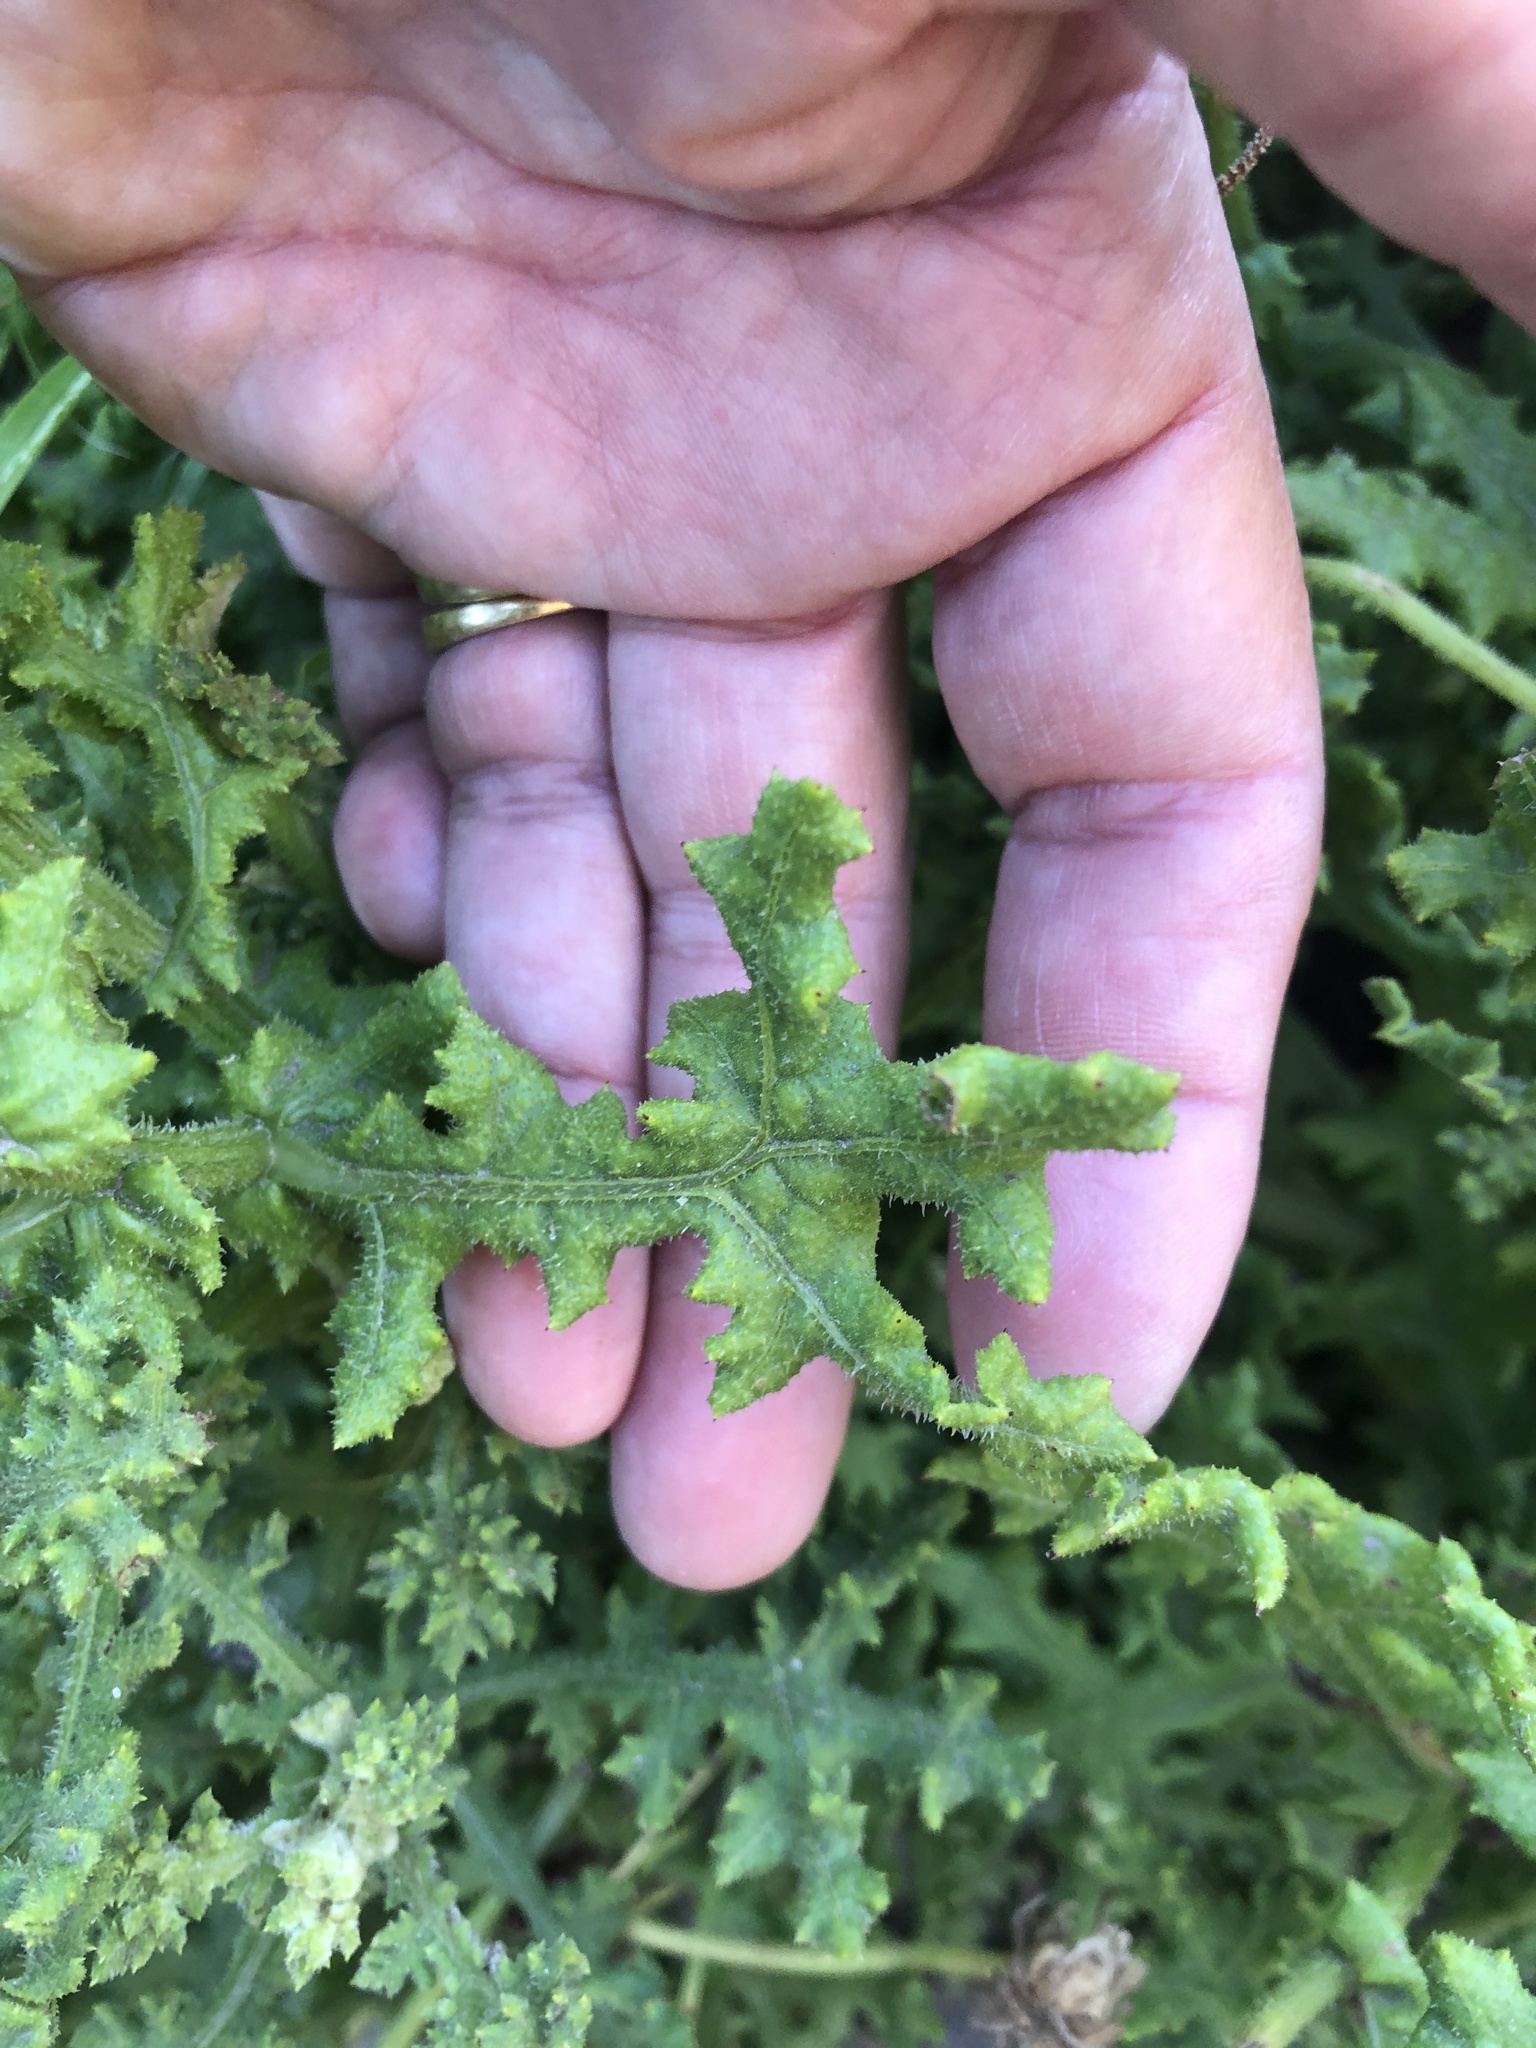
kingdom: Plantae
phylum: Tracheophyta
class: Magnoliopsida
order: Asterales
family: Asteraceae
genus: Arctotis
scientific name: Arctotis aspera
